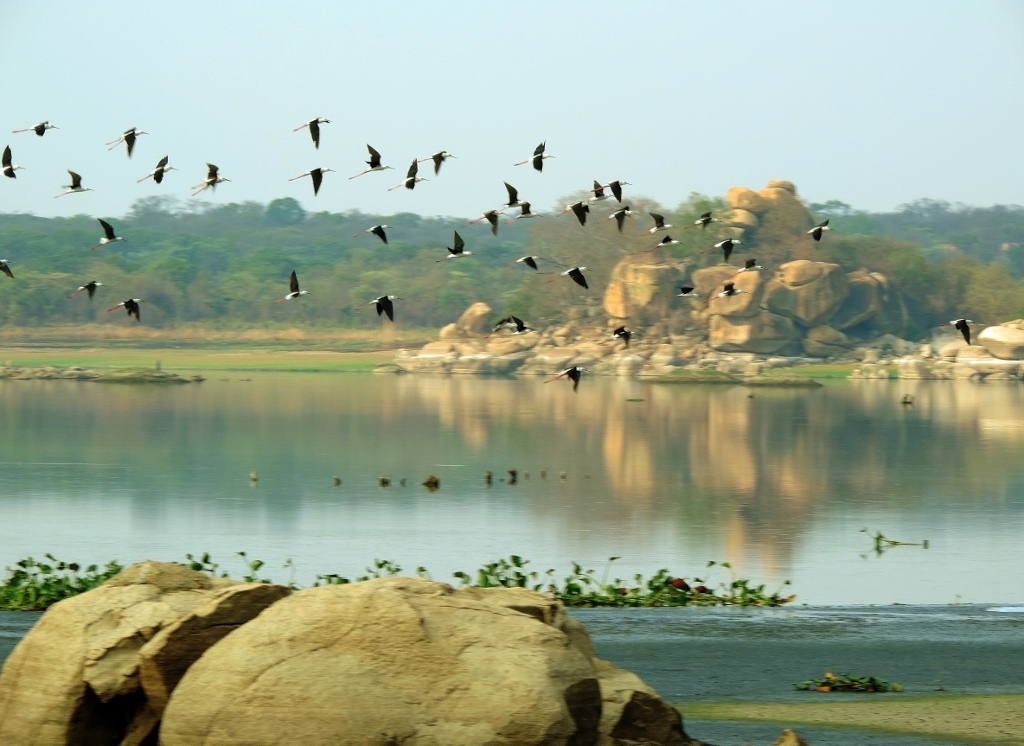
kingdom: Animalia
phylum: Chordata
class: Aves
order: Charadriiformes
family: Recurvirostridae
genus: Himantopus
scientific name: Himantopus himantopus
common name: Black-winged stilt
